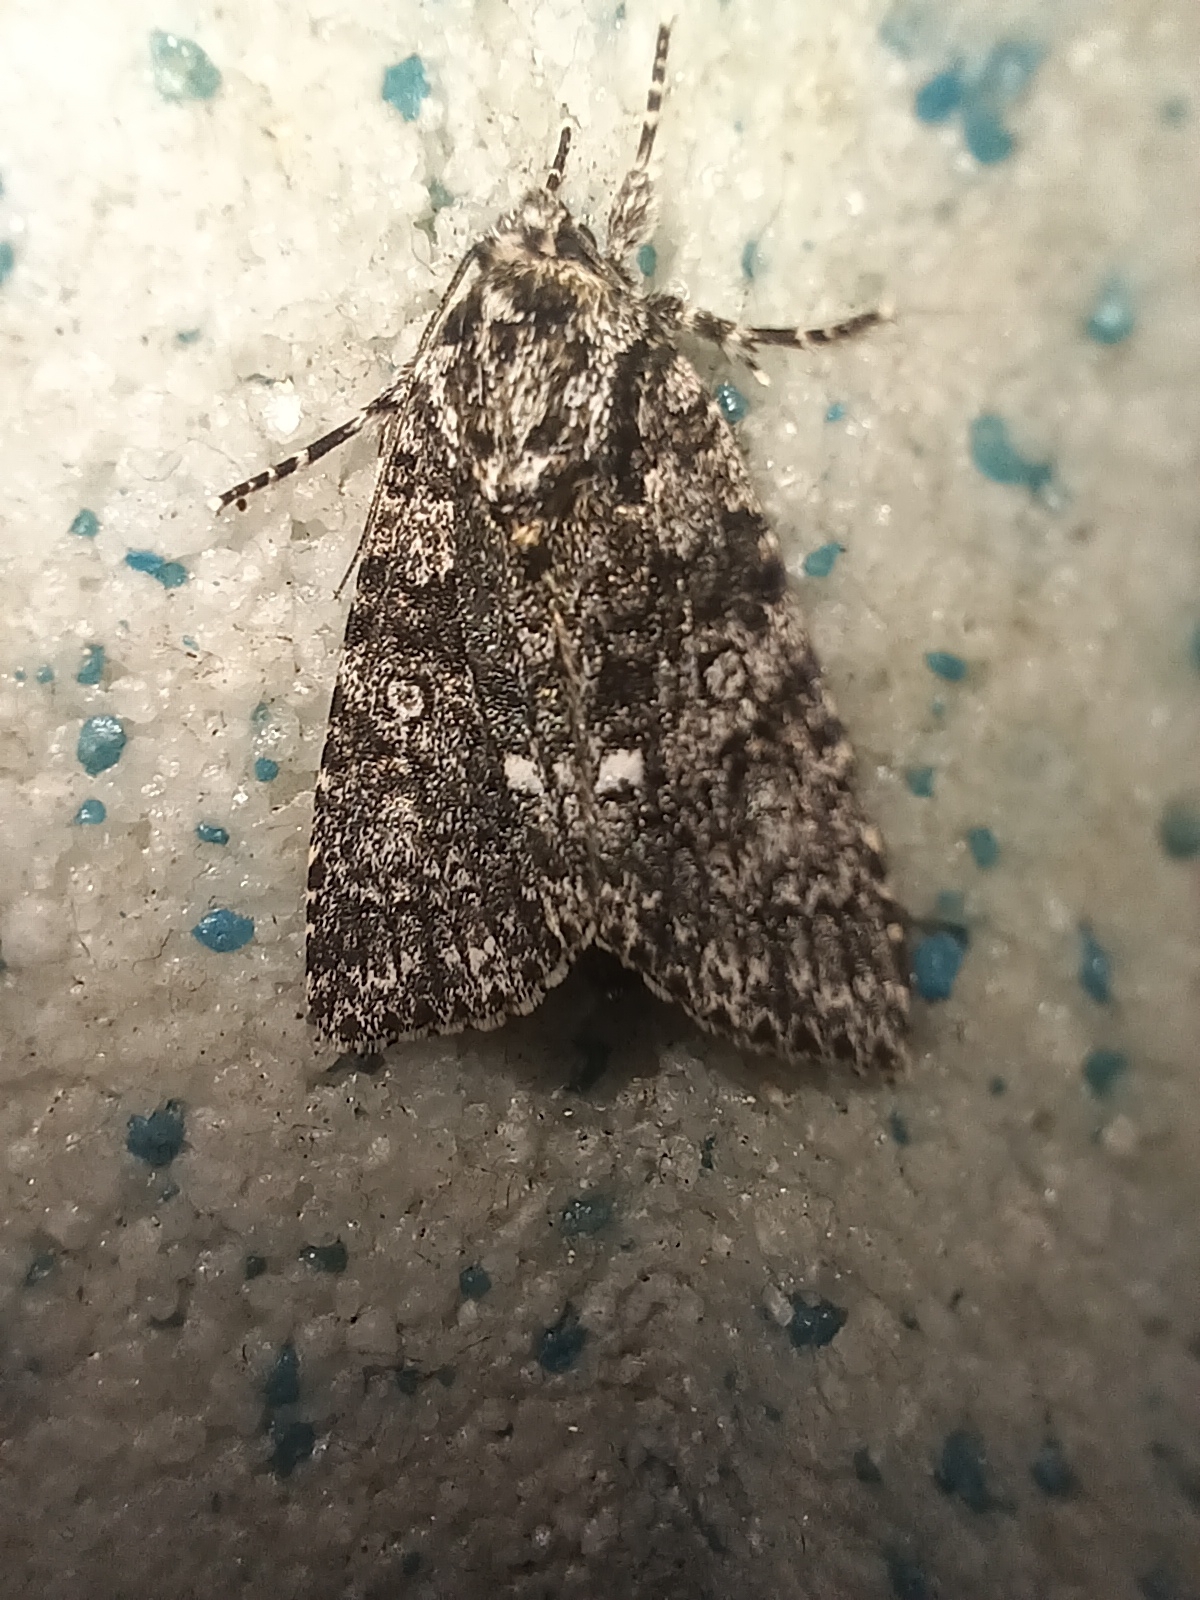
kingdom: Animalia
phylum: Arthropoda
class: Insecta
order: Lepidoptera
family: Noctuidae
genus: Acronicta
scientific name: Acronicta rumicis
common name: Knot grass
